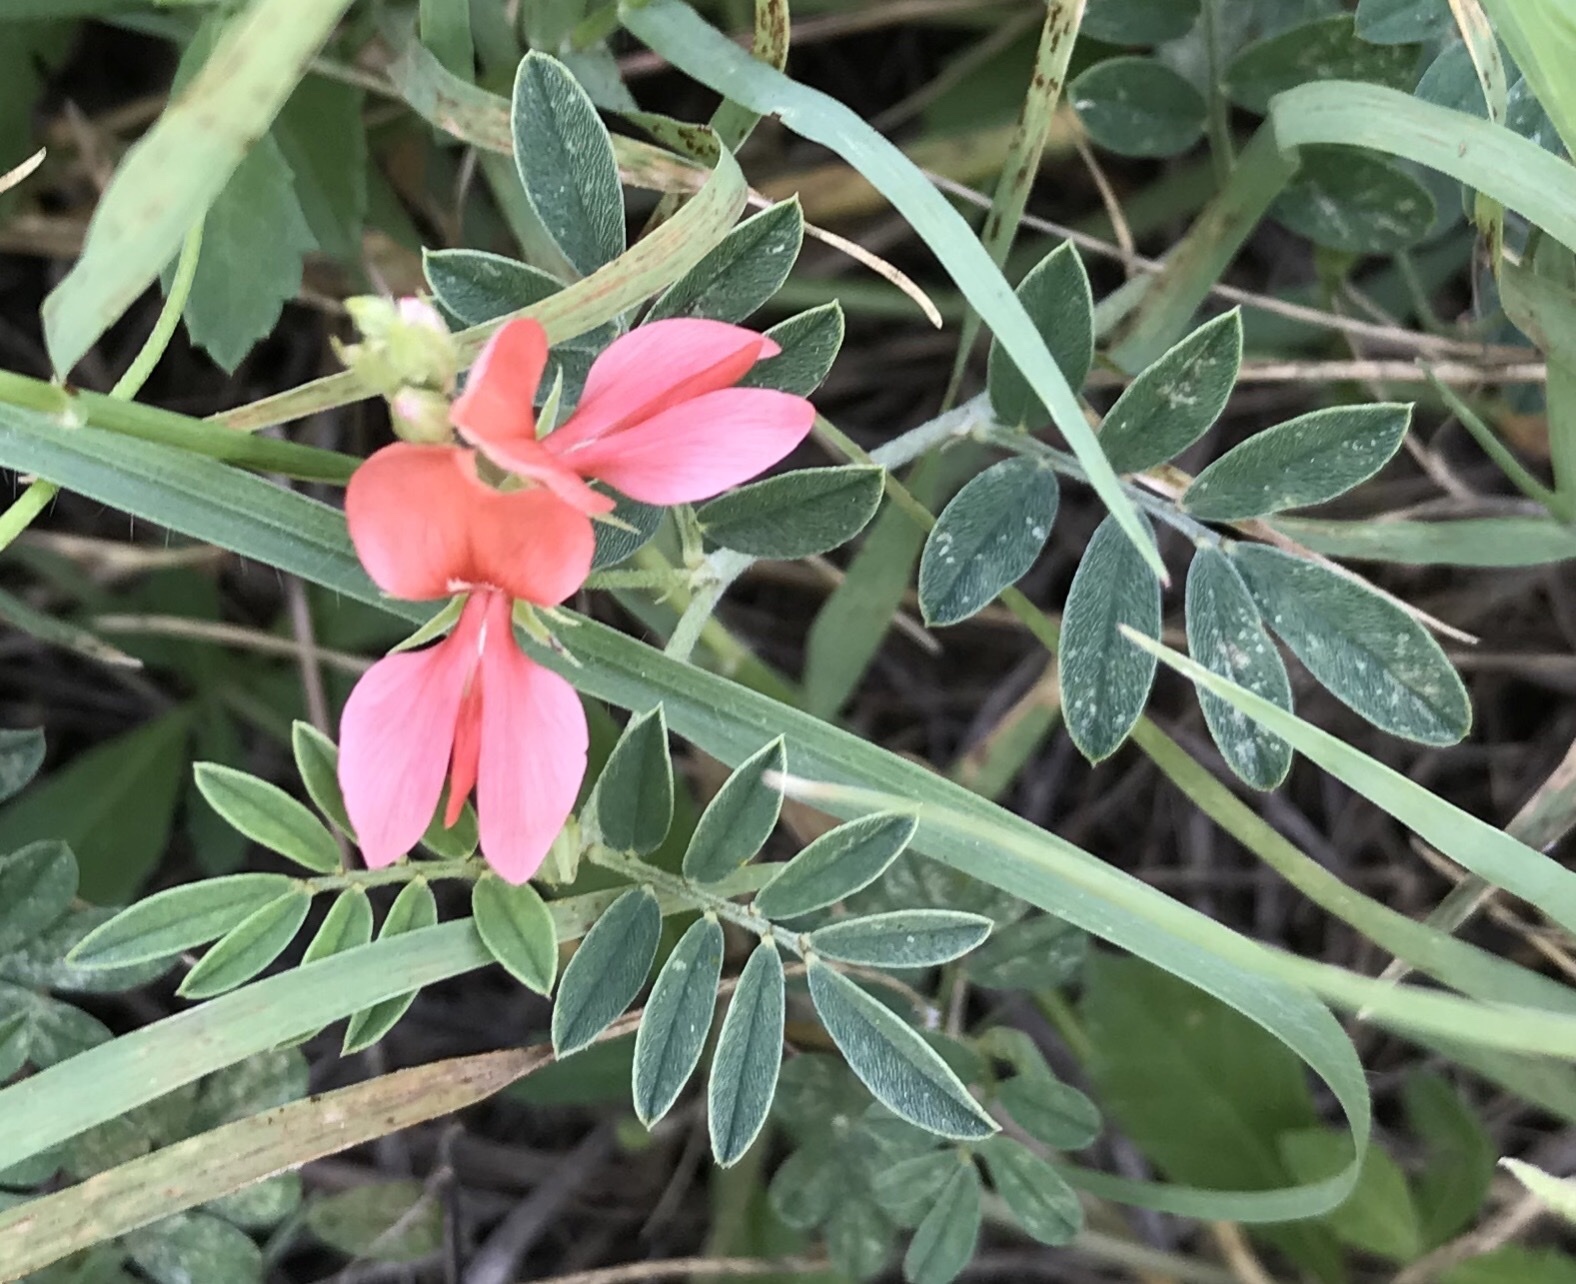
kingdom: Plantae
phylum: Tracheophyta
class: Magnoliopsida
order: Fabales
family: Fabaceae
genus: Indigofera
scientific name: Indigofera miniata
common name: Coast indigo
